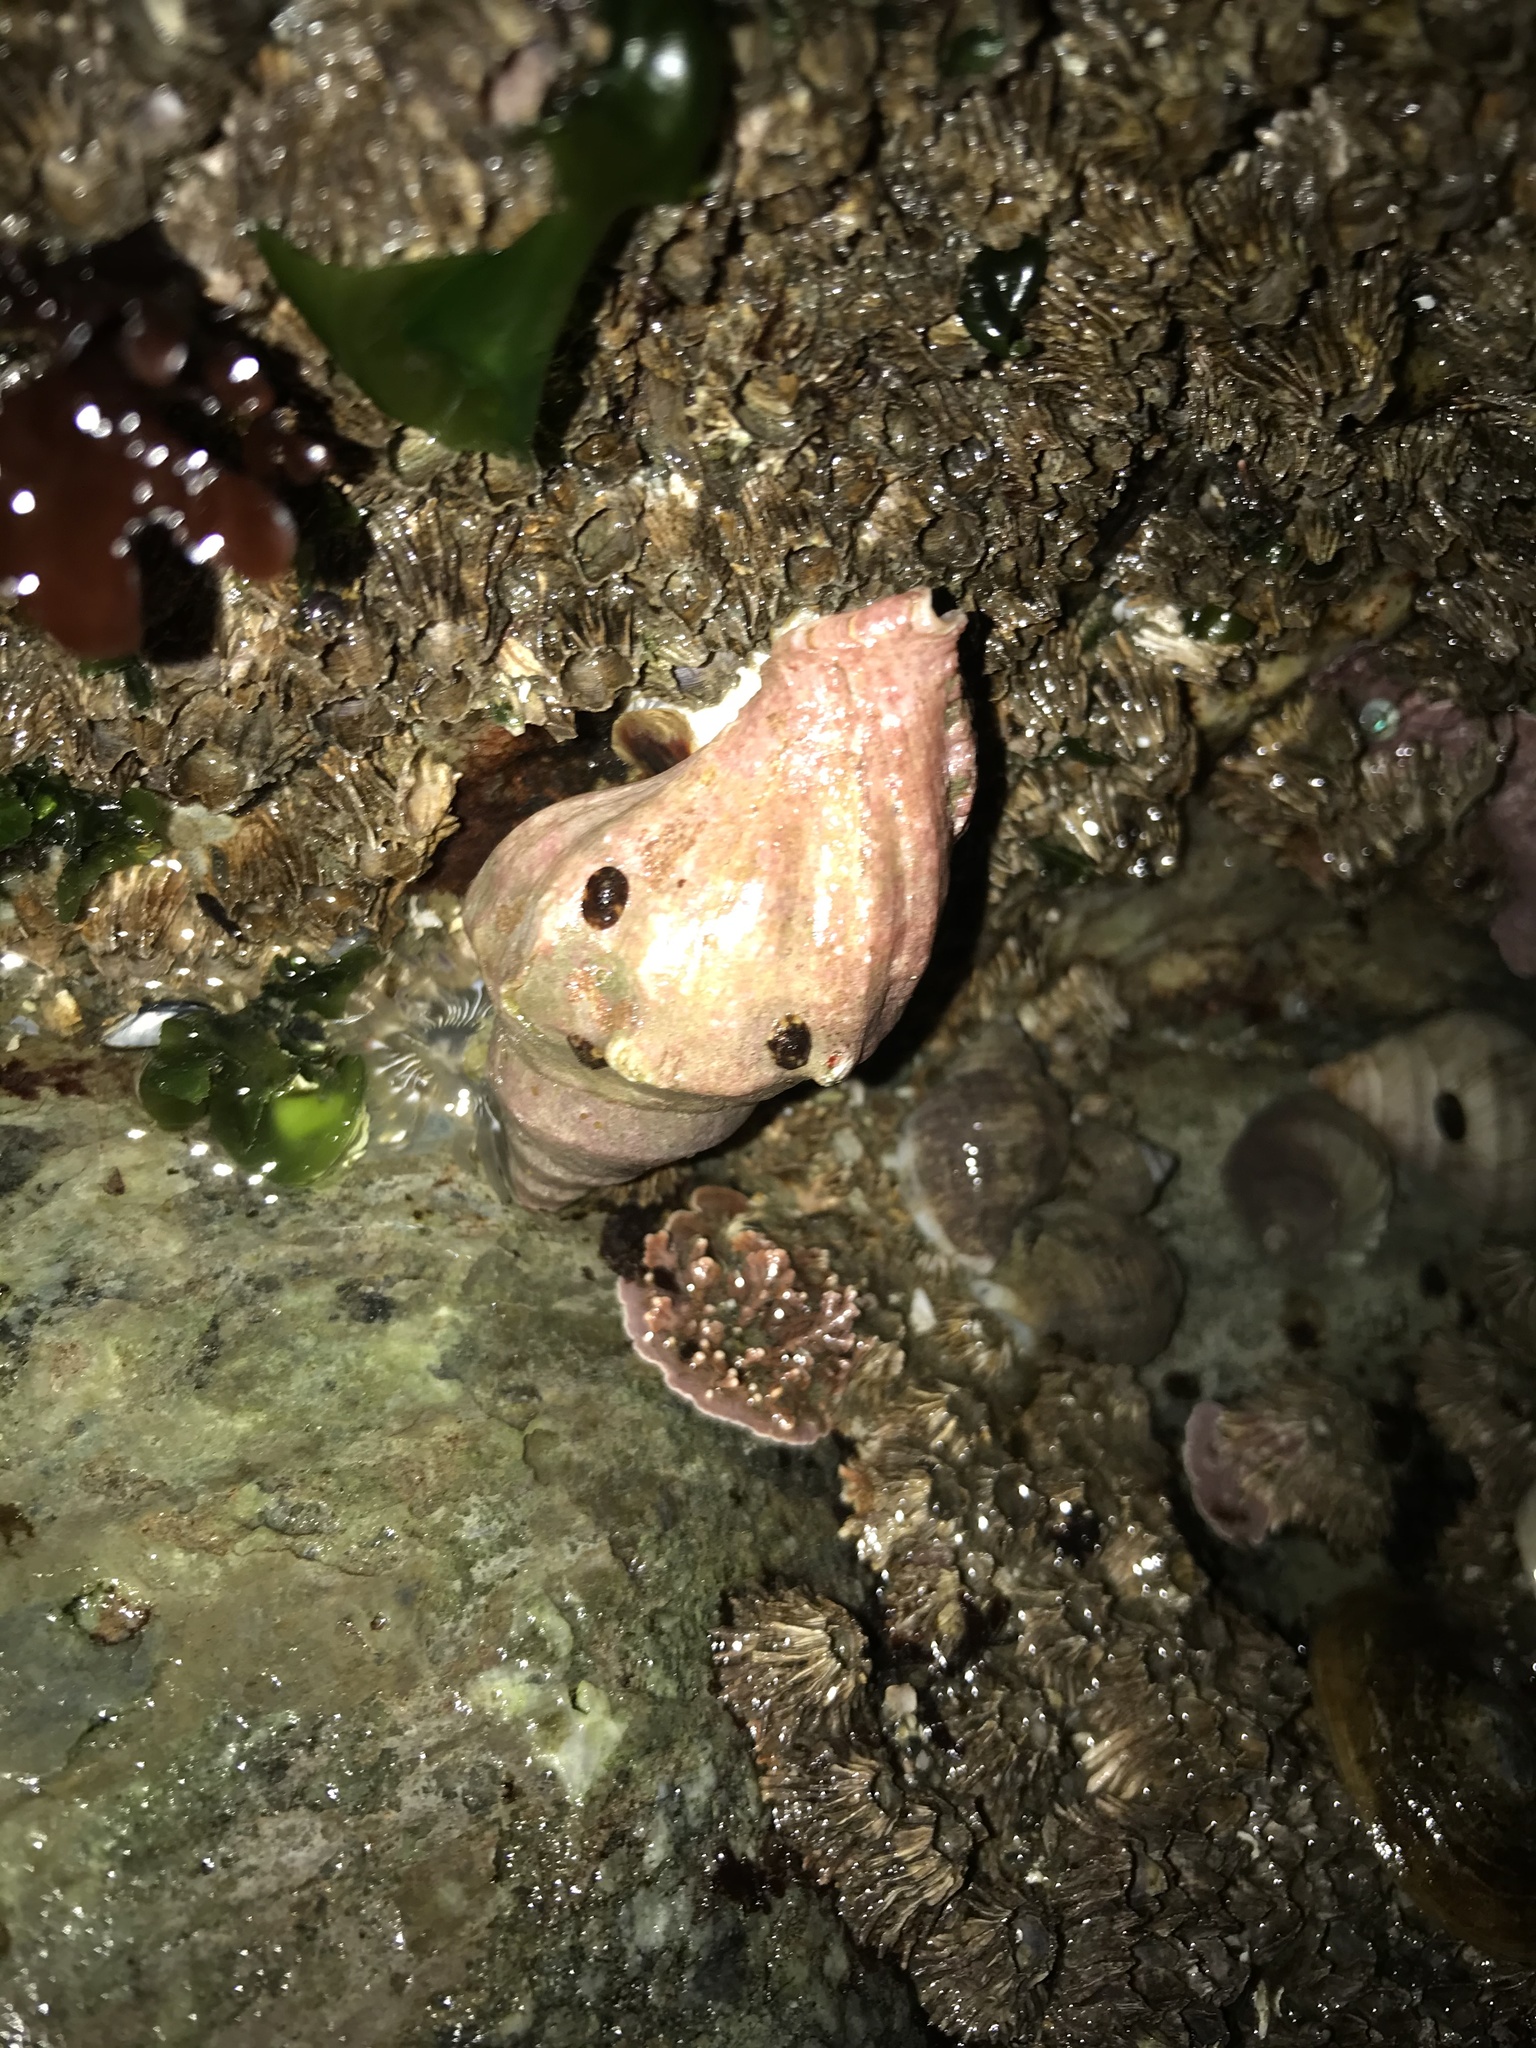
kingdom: Animalia
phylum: Mollusca
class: Gastropoda
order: Neogastropoda
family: Muricidae
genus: Nucella
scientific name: Nucella lamellosa
